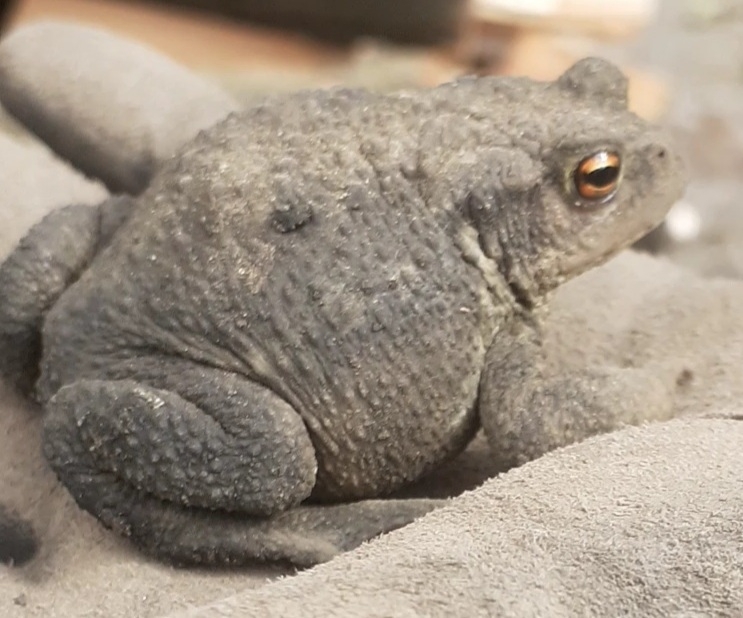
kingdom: Animalia
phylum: Chordata
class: Amphibia
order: Anura
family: Bufonidae
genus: Bufo
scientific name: Bufo bufo
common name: Common toad
